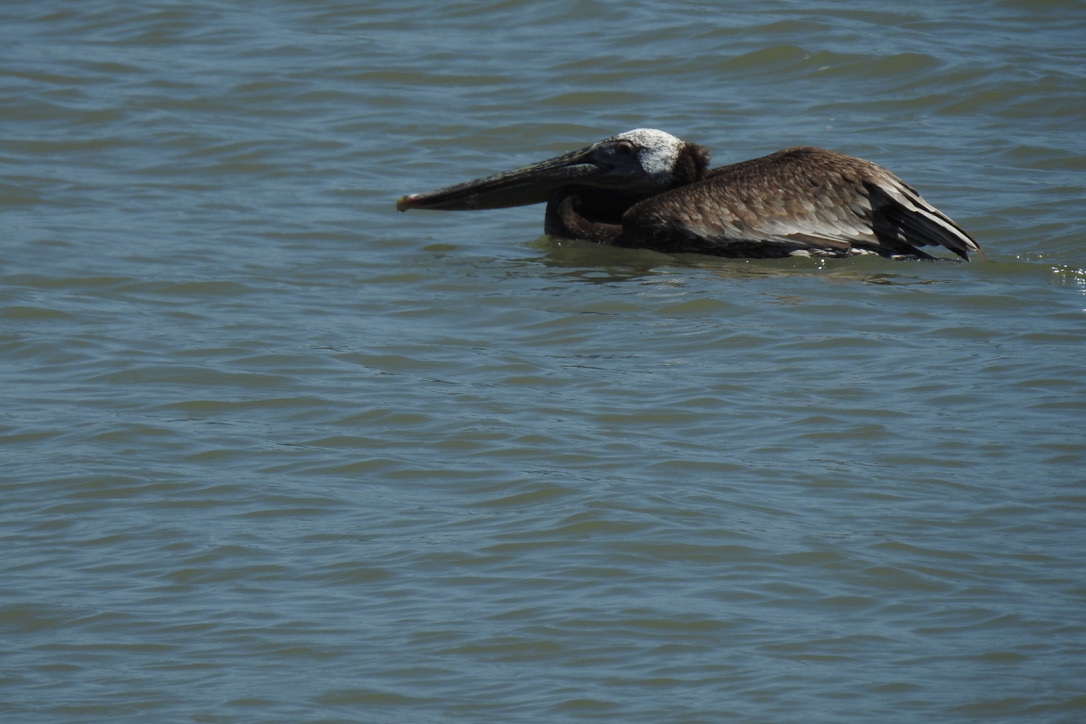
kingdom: Animalia
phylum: Chordata
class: Aves
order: Pelecaniformes
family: Pelecanidae
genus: Pelecanus
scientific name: Pelecanus occidentalis
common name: Brown pelican
